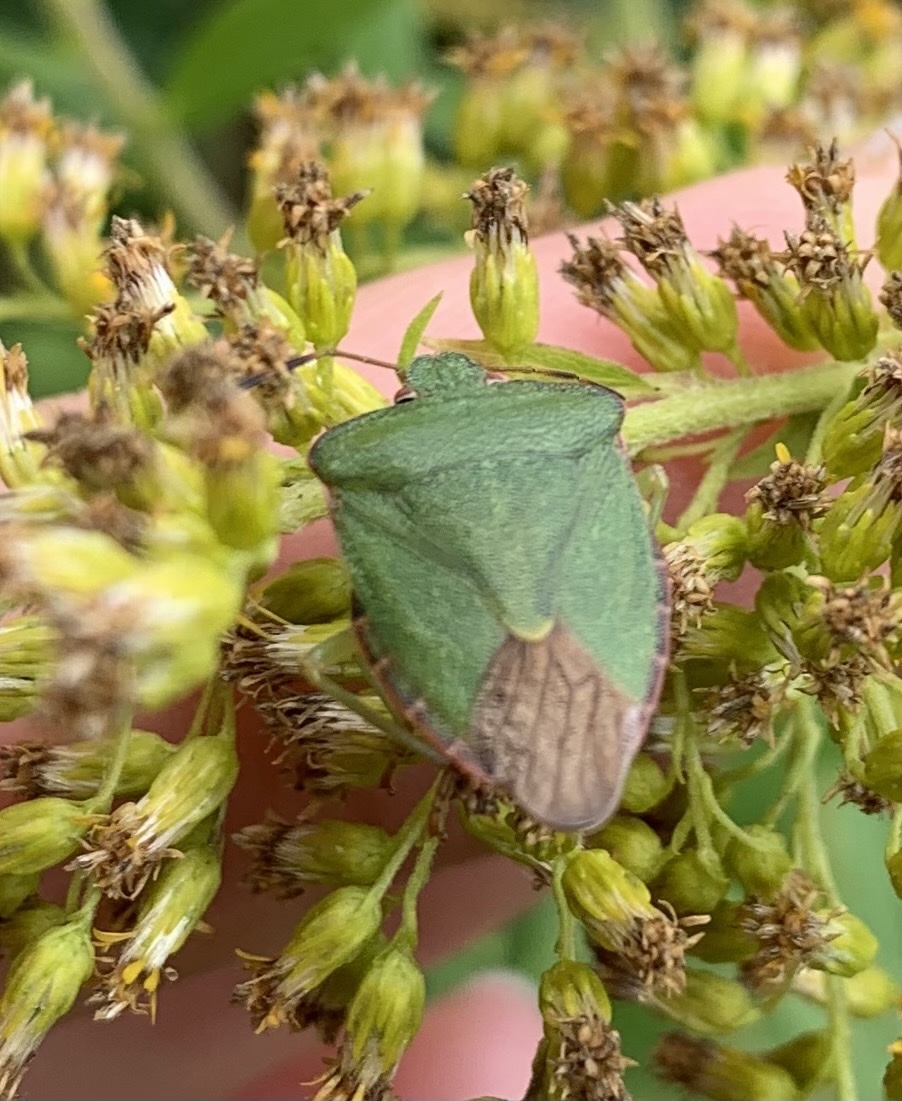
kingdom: Animalia
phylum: Arthropoda
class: Insecta
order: Hemiptera
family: Pentatomidae
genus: Palomena
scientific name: Palomena prasina
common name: Green shieldbug
